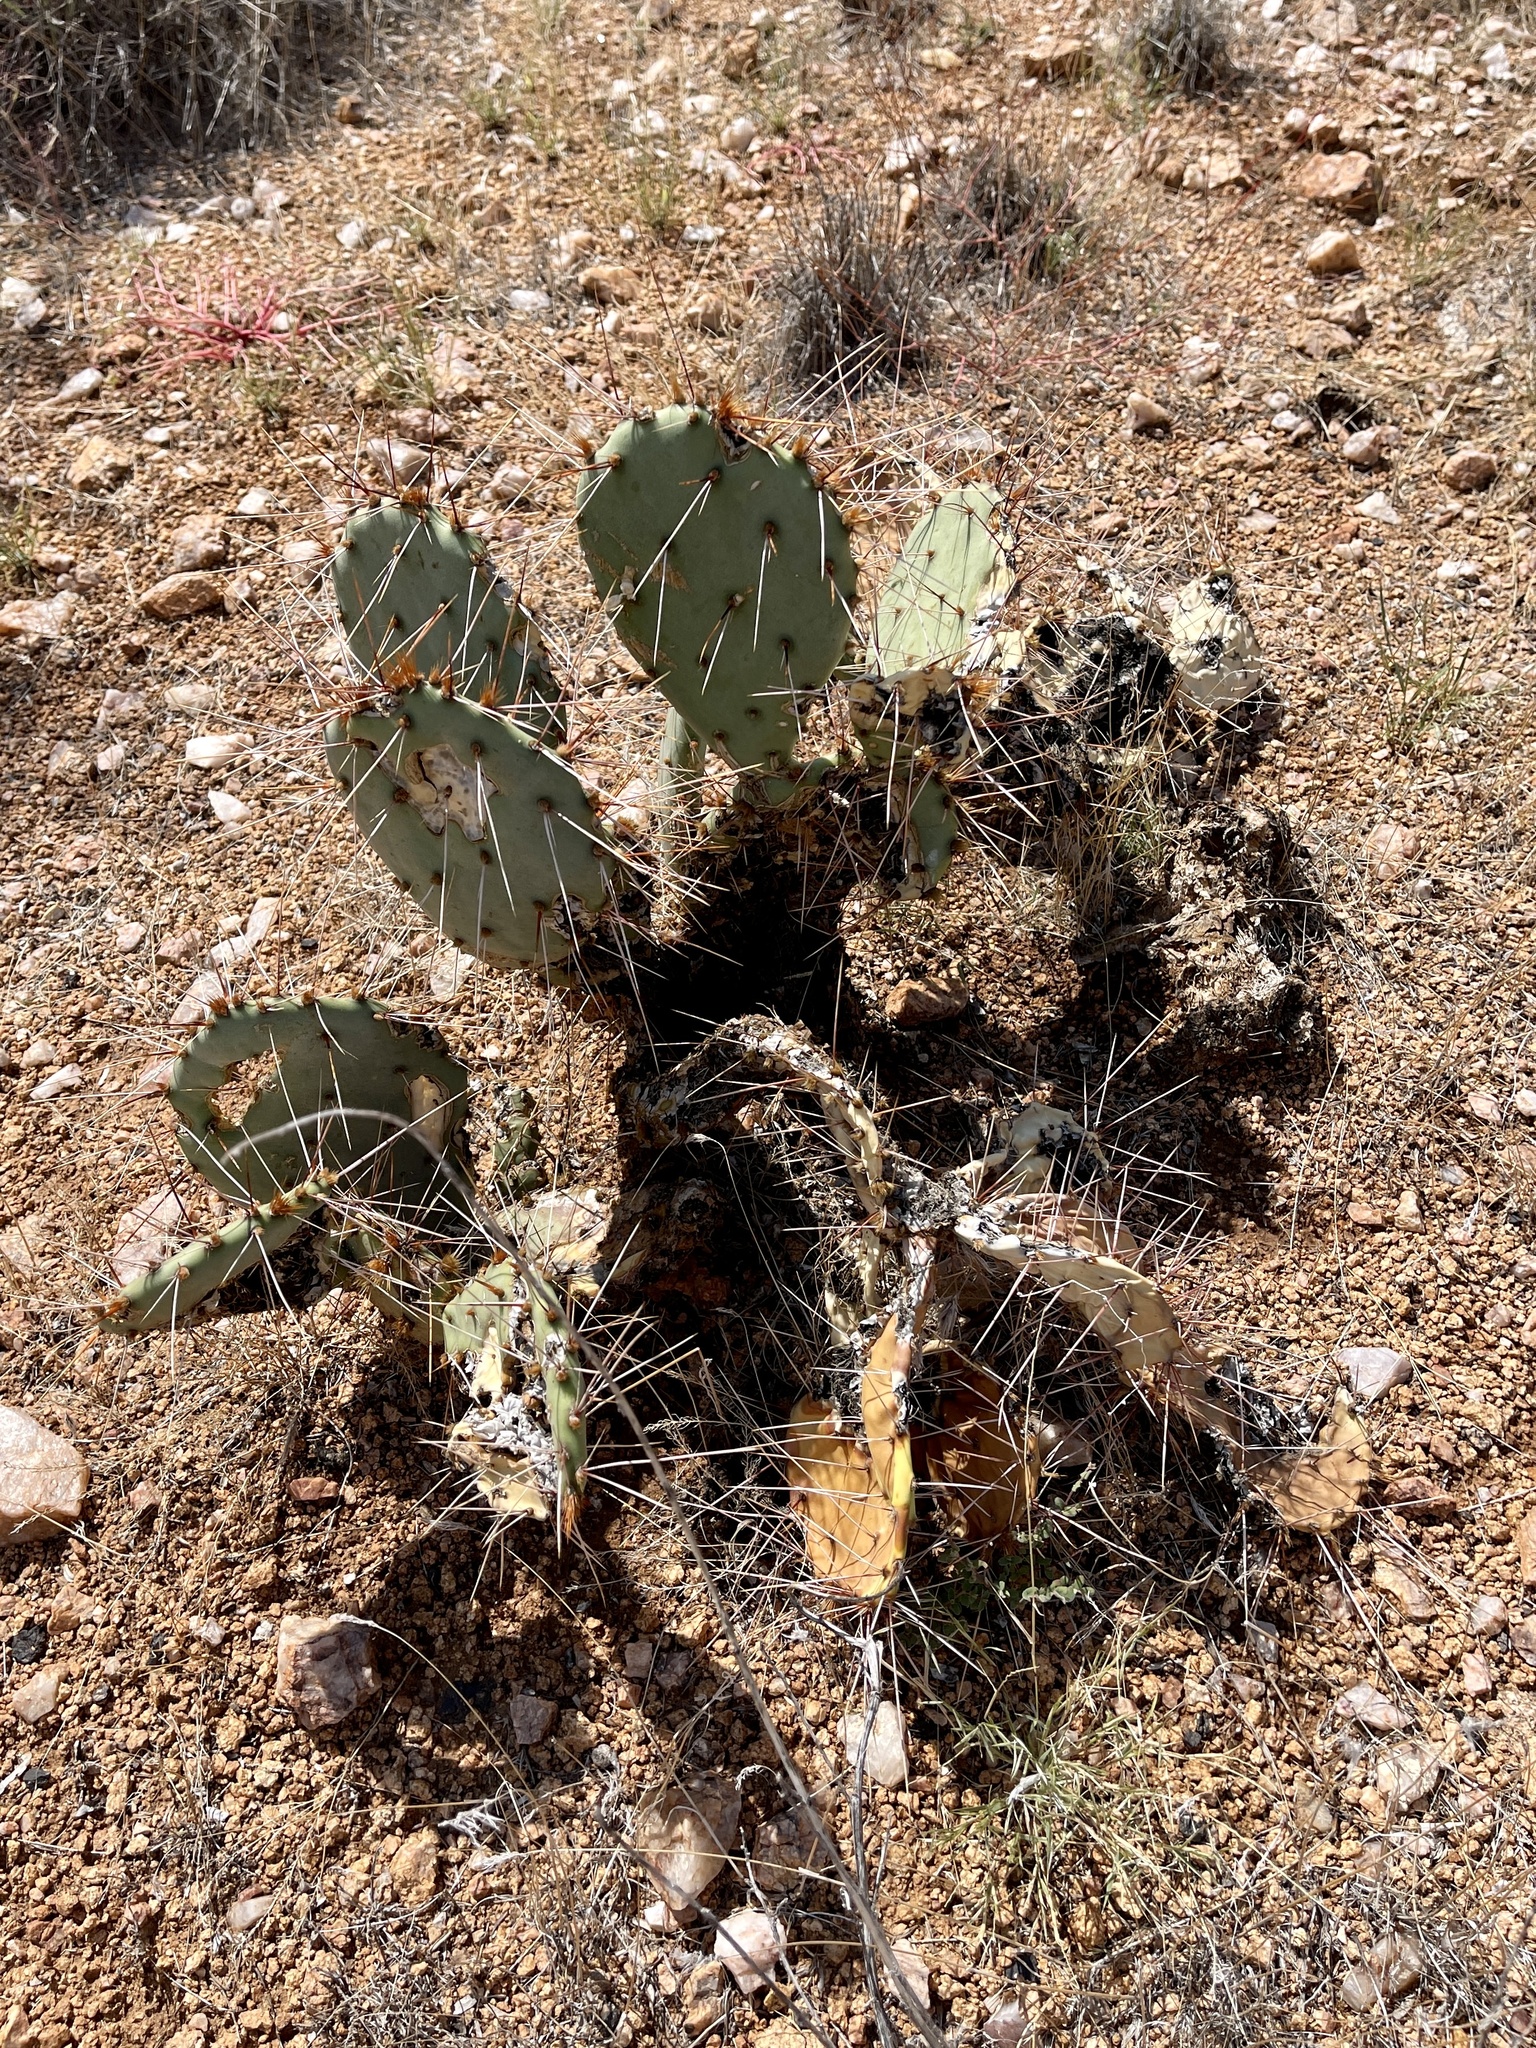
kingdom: Plantae
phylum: Tracheophyta
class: Magnoliopsida
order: Caryophyllales
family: Cactaceae
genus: Opuntia
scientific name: Opuntia phaeacantha
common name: New mexico prickly-pear
